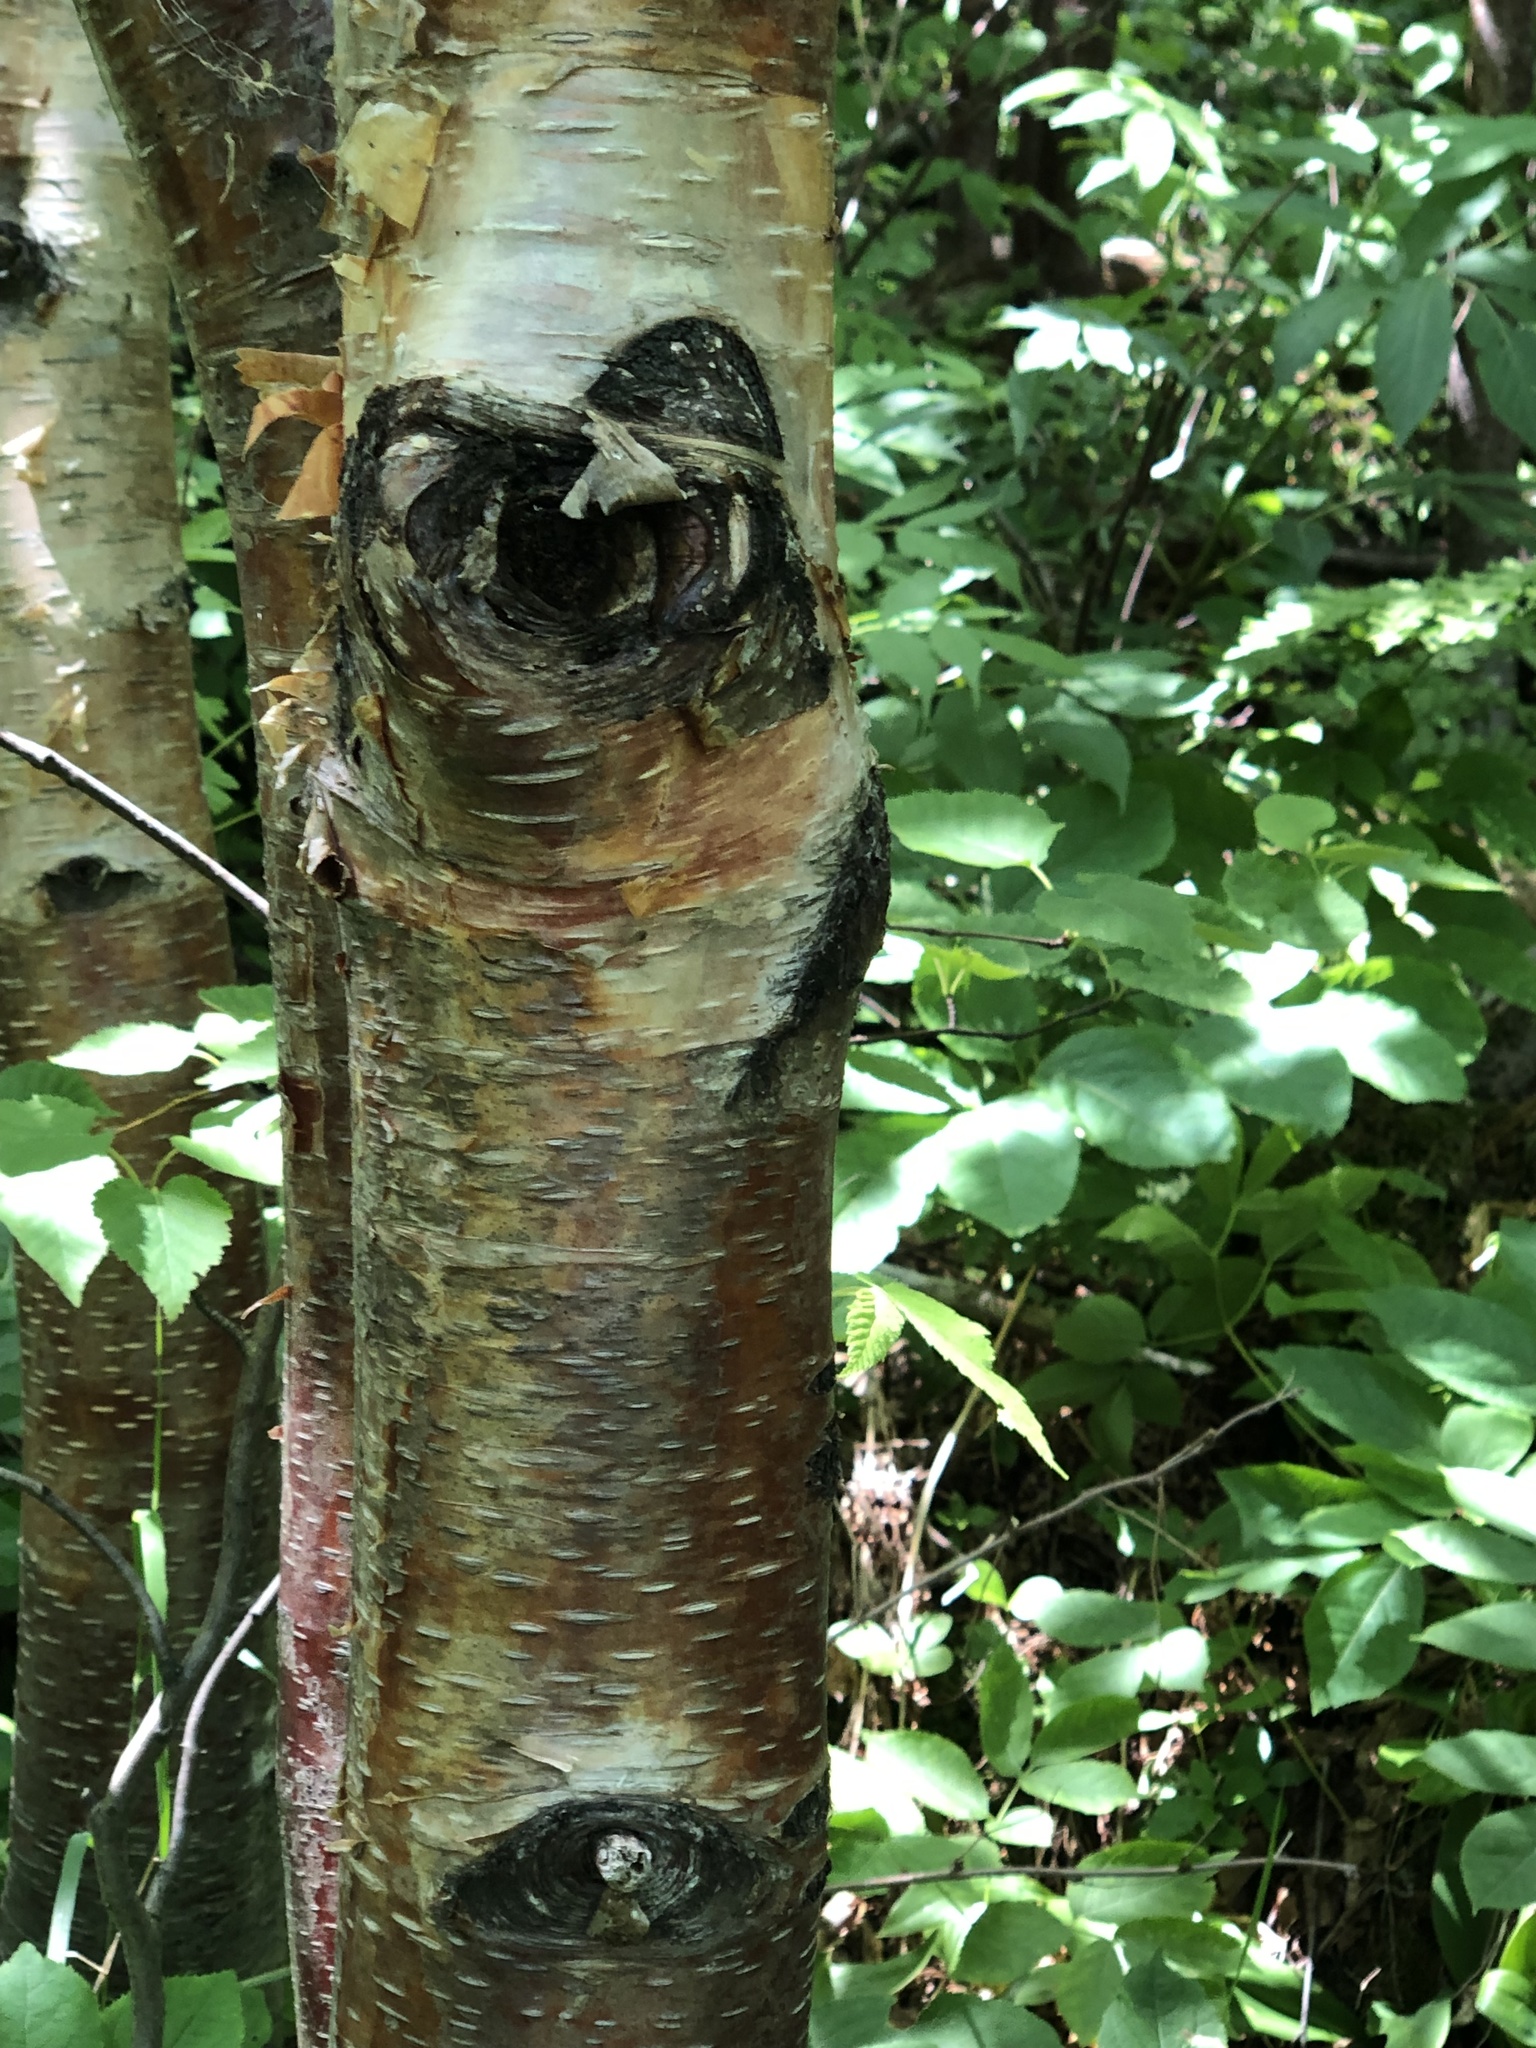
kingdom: Plantae
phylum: Tracheophyta
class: Magnoliopsida
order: Fagales
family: Betulaceae
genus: Betula
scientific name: Betula cordifolia
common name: Mountain white birch
